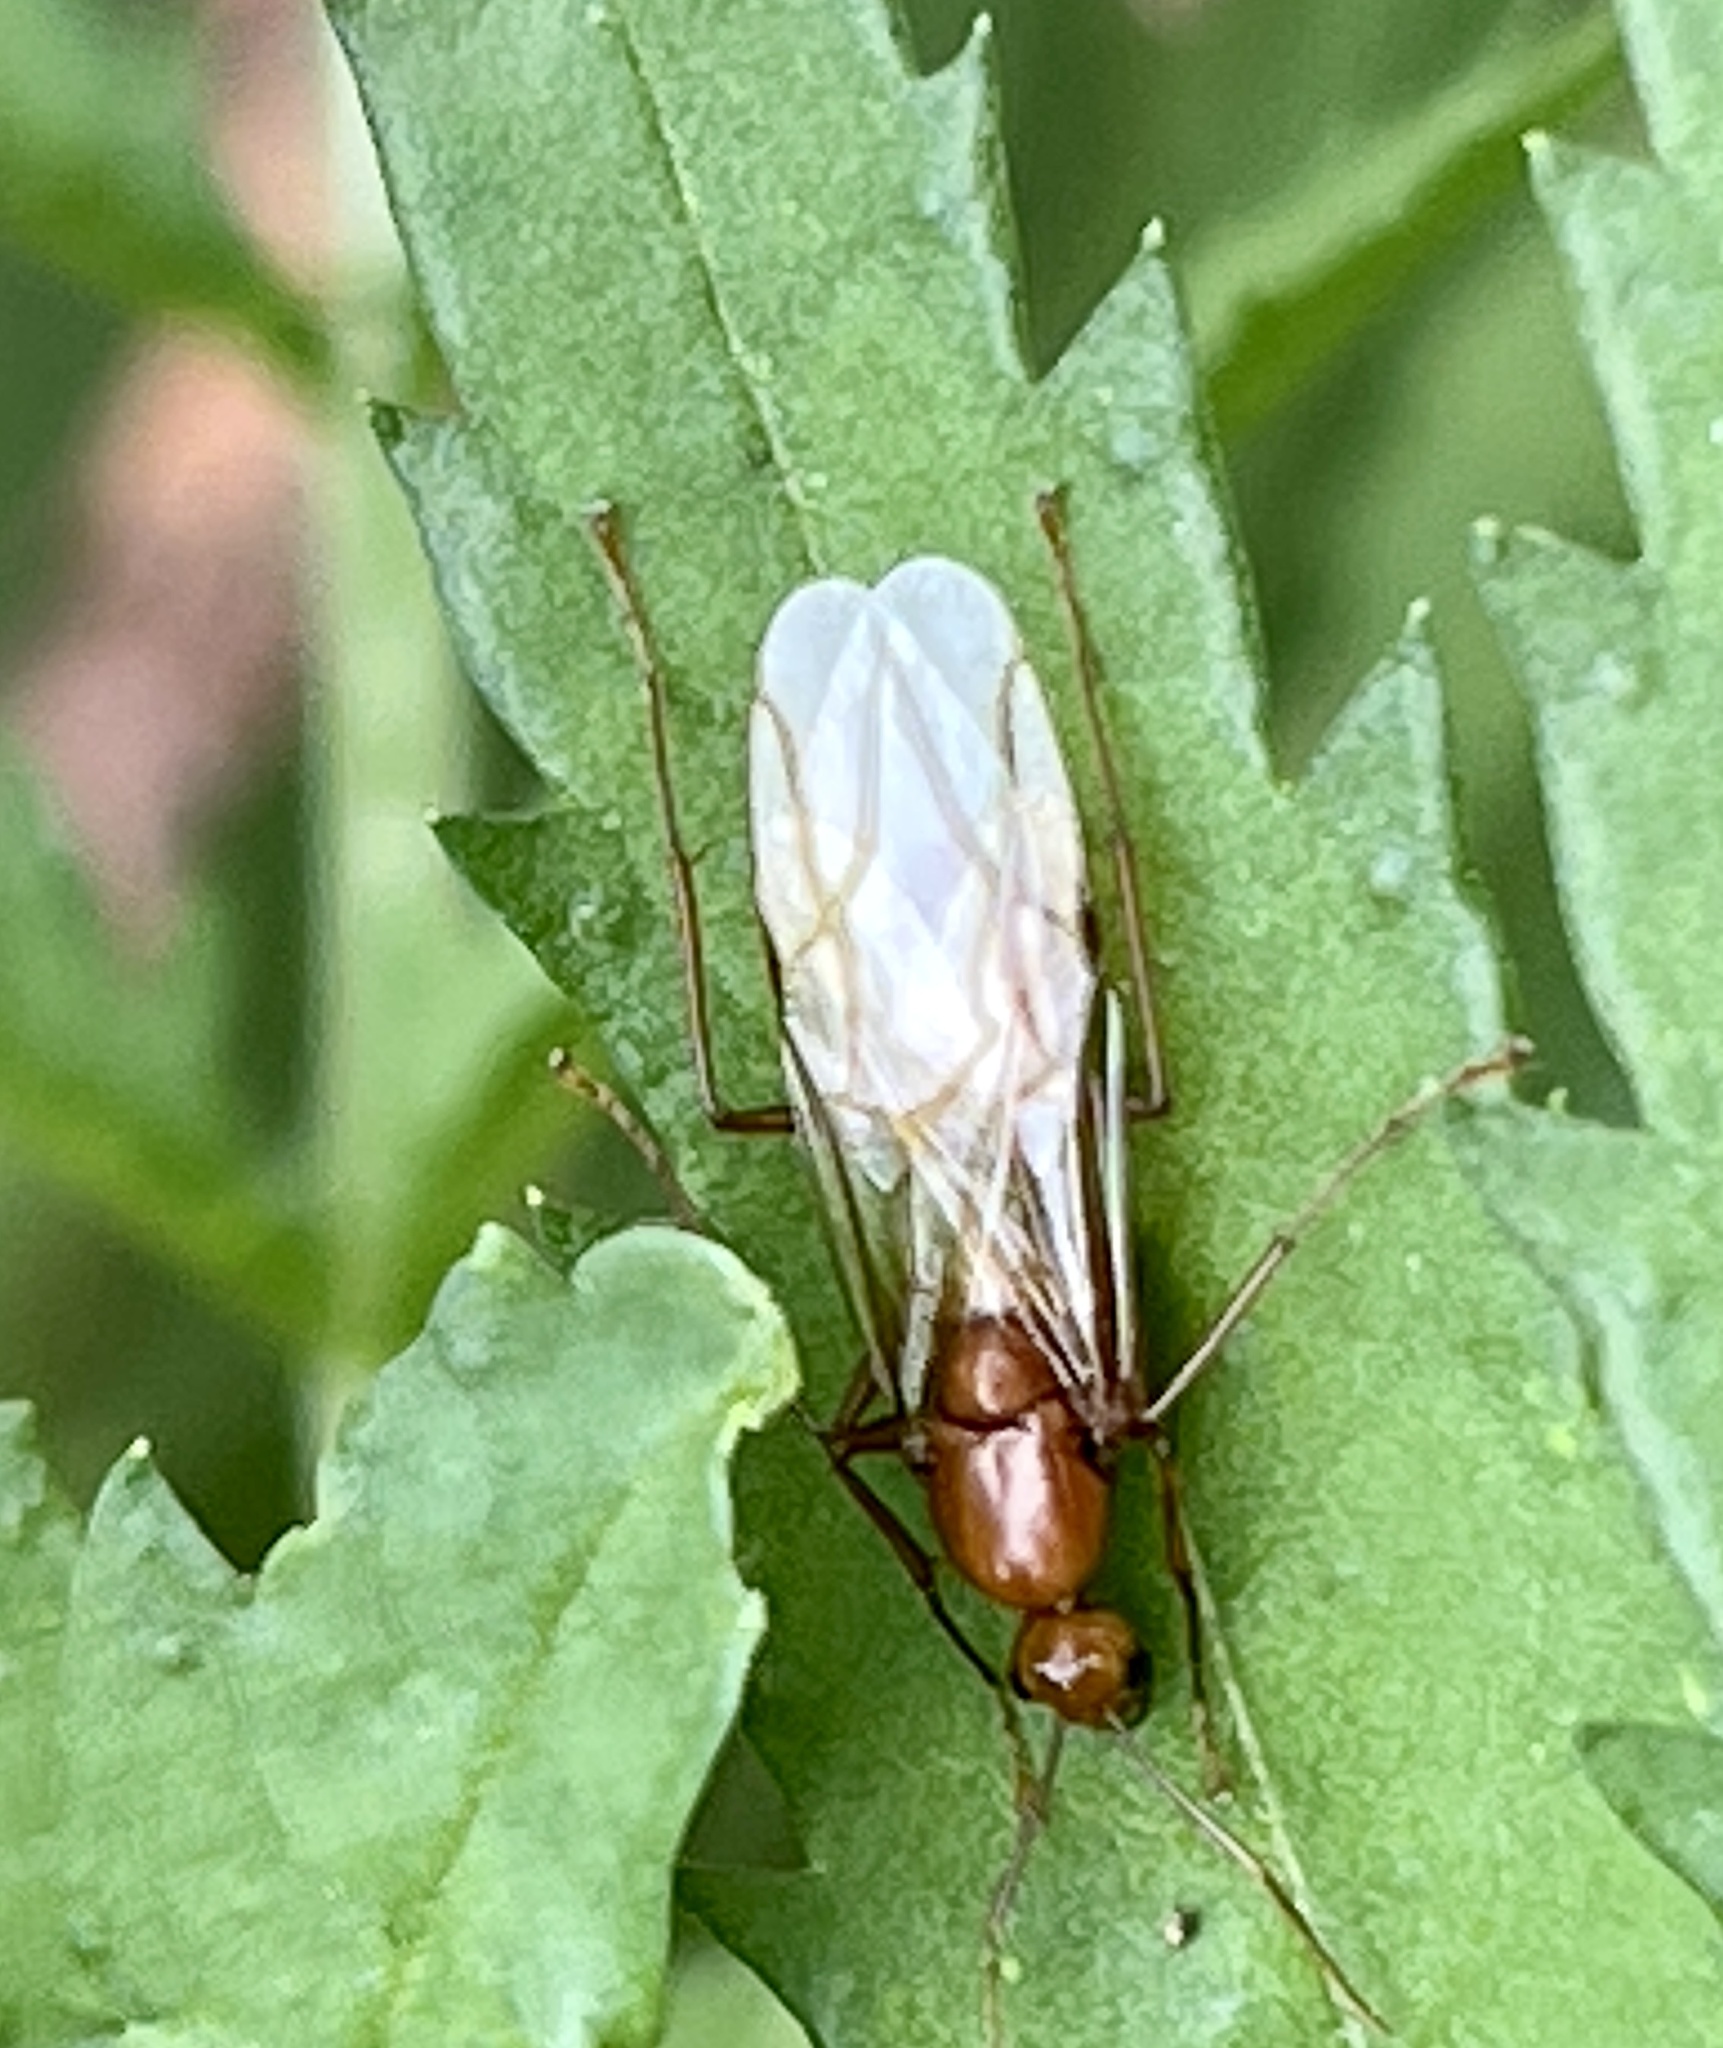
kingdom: Animalia
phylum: Arthropoda
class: Insecta
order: Hymenoptera
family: Formicidae
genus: Camponotus
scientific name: Camponotus castaneus
